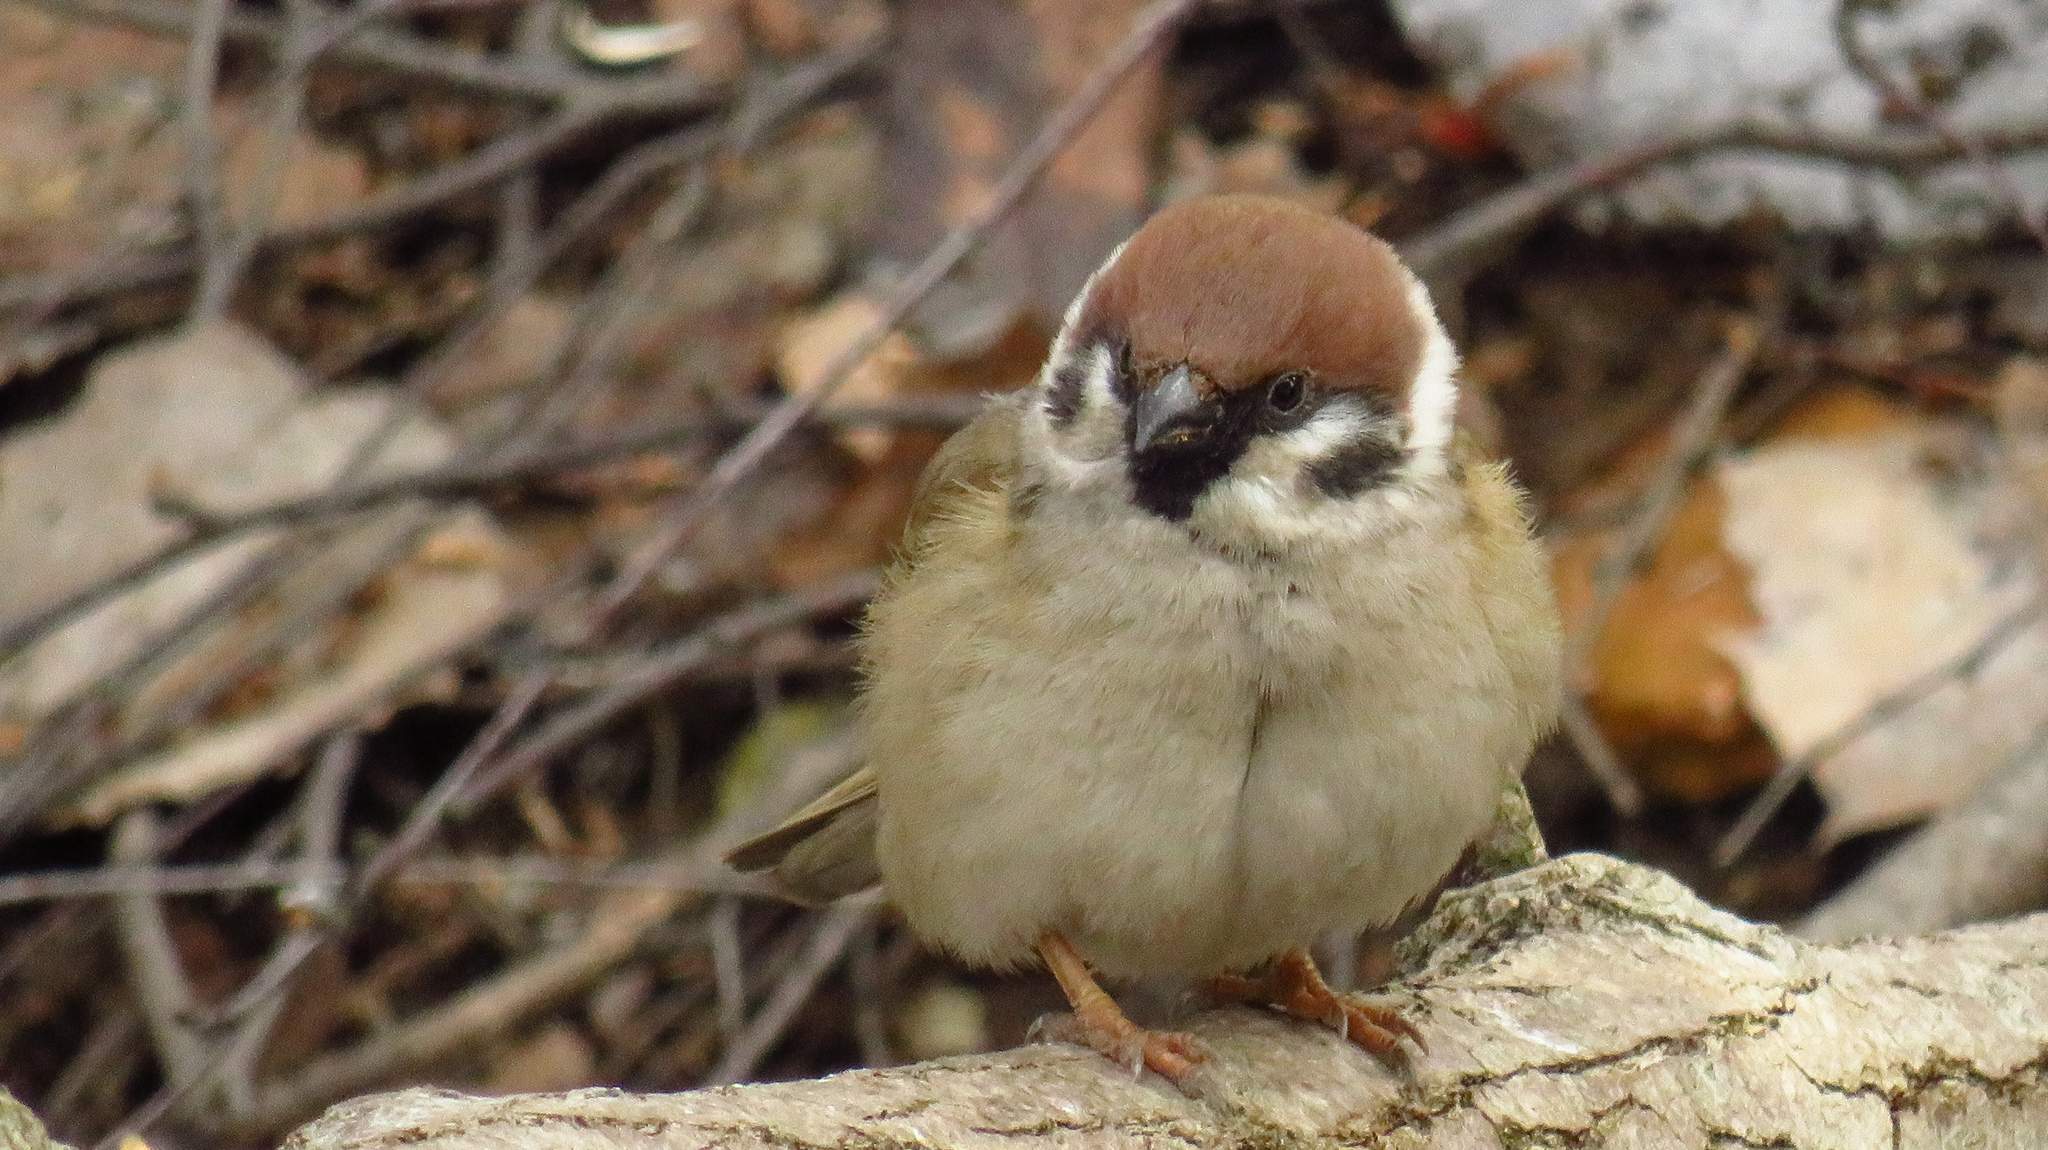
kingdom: Animalia
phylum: Chordata
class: Aves
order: Passeriformes
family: Passeridae
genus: Passer
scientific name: Passer montanus
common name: Eurasian tree sparrow
